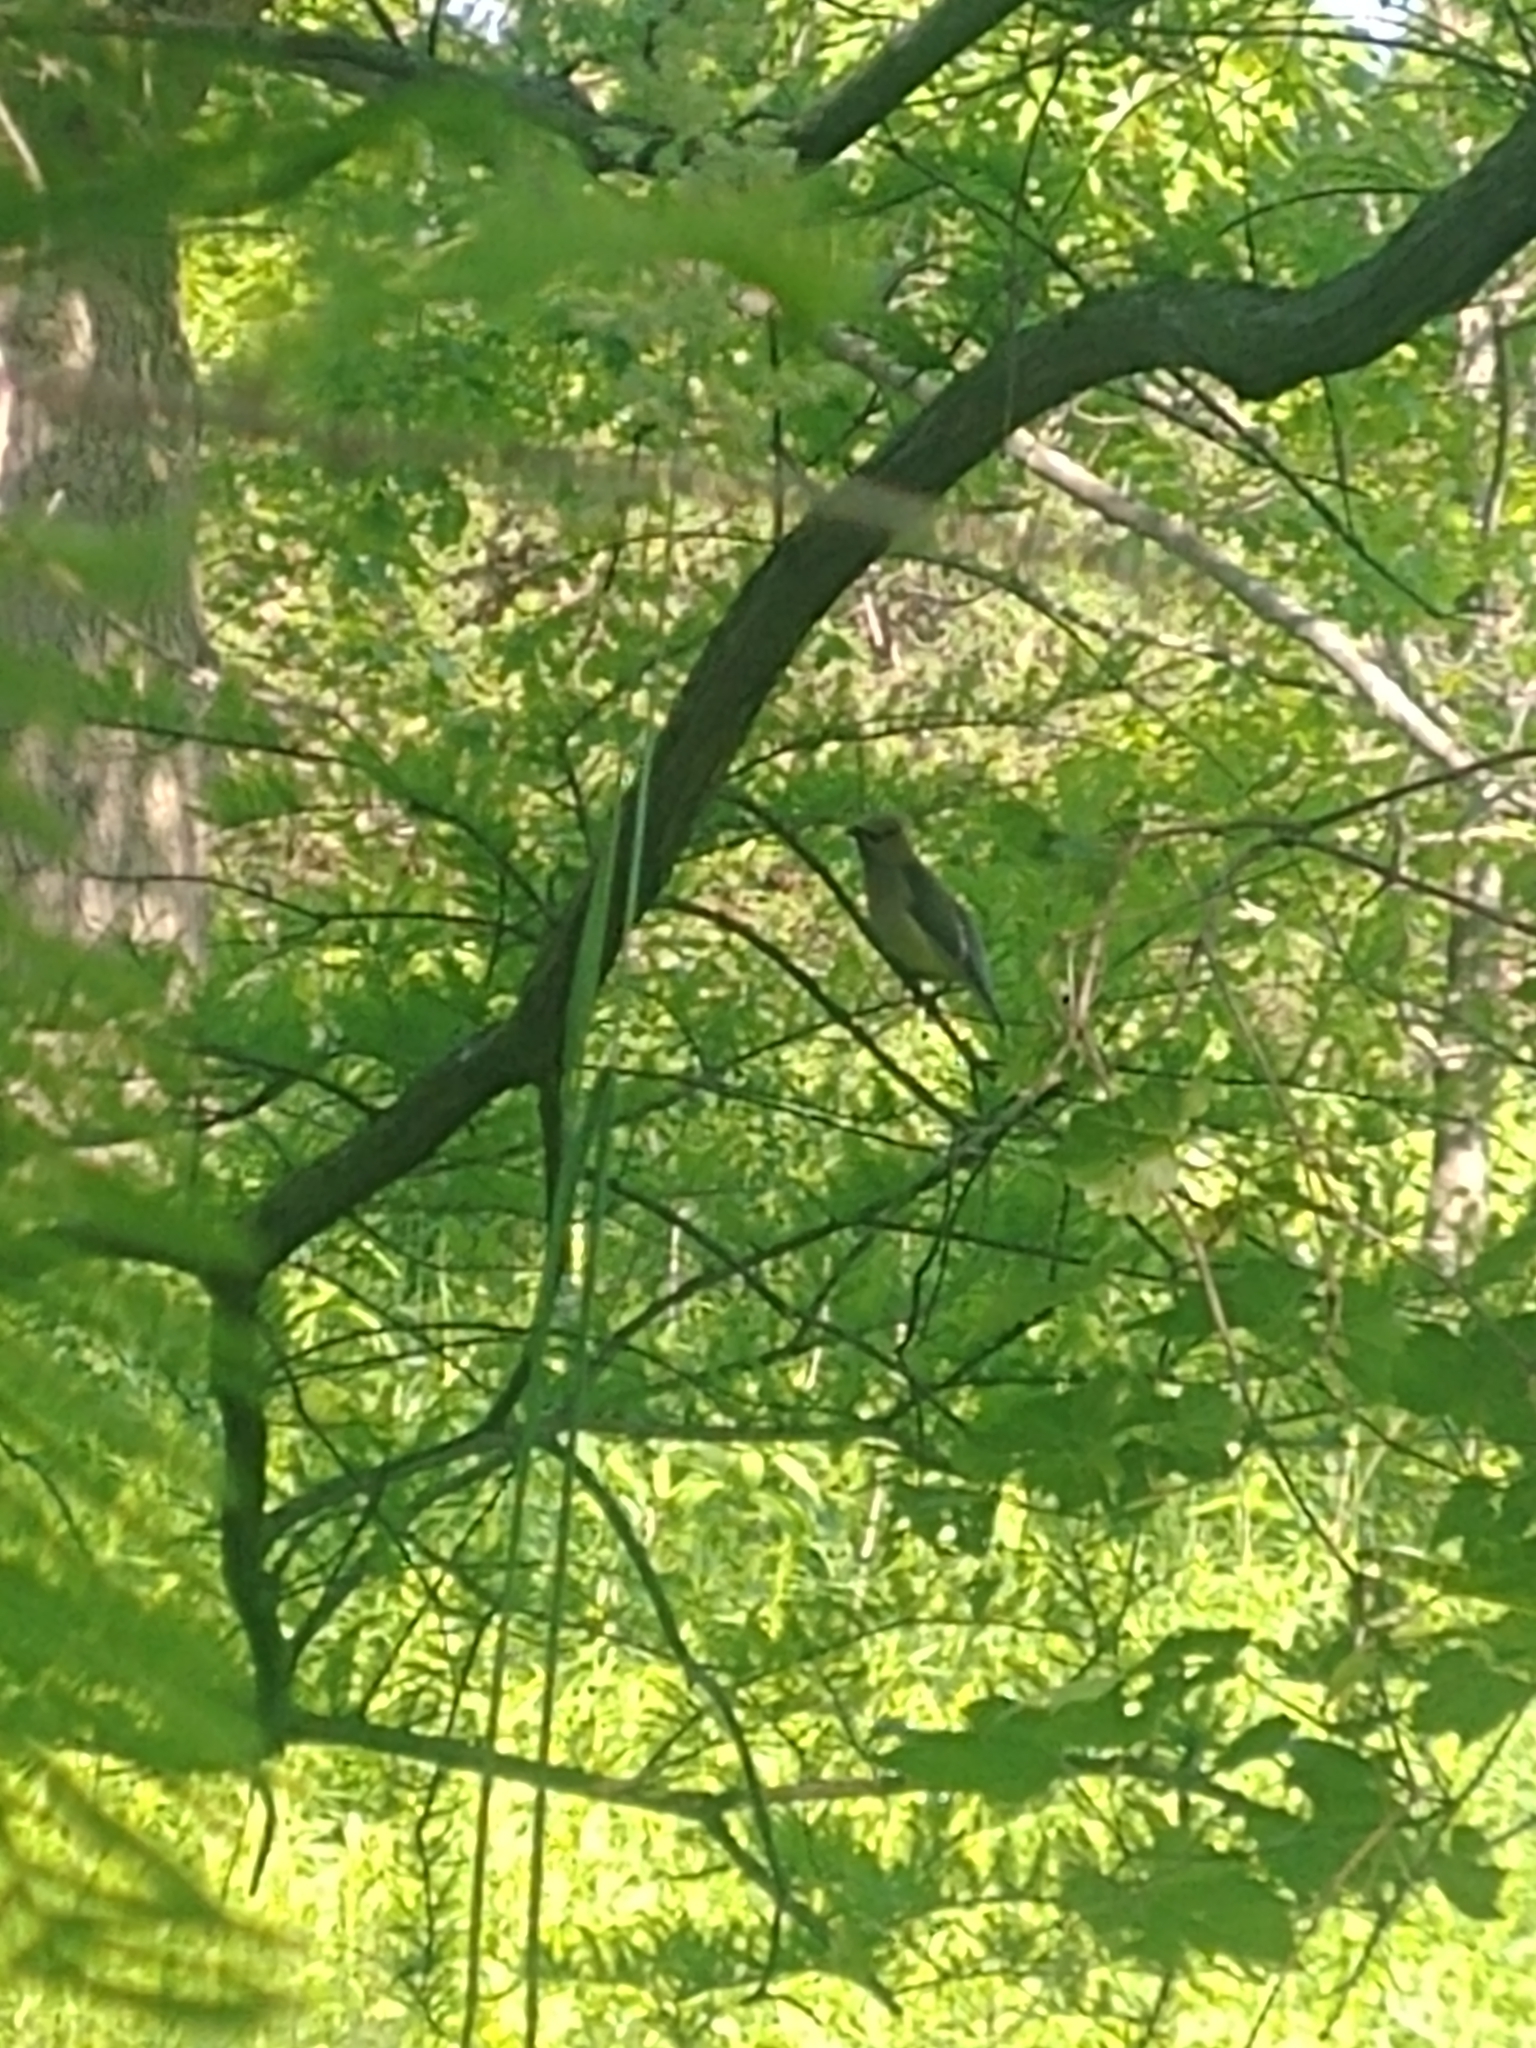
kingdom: Animalia
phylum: Chordata
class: Aves
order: Passeriformes
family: Bombycillidae
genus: Bombycilla
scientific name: Bombycilla cedrorum
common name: Cedar waxwing
